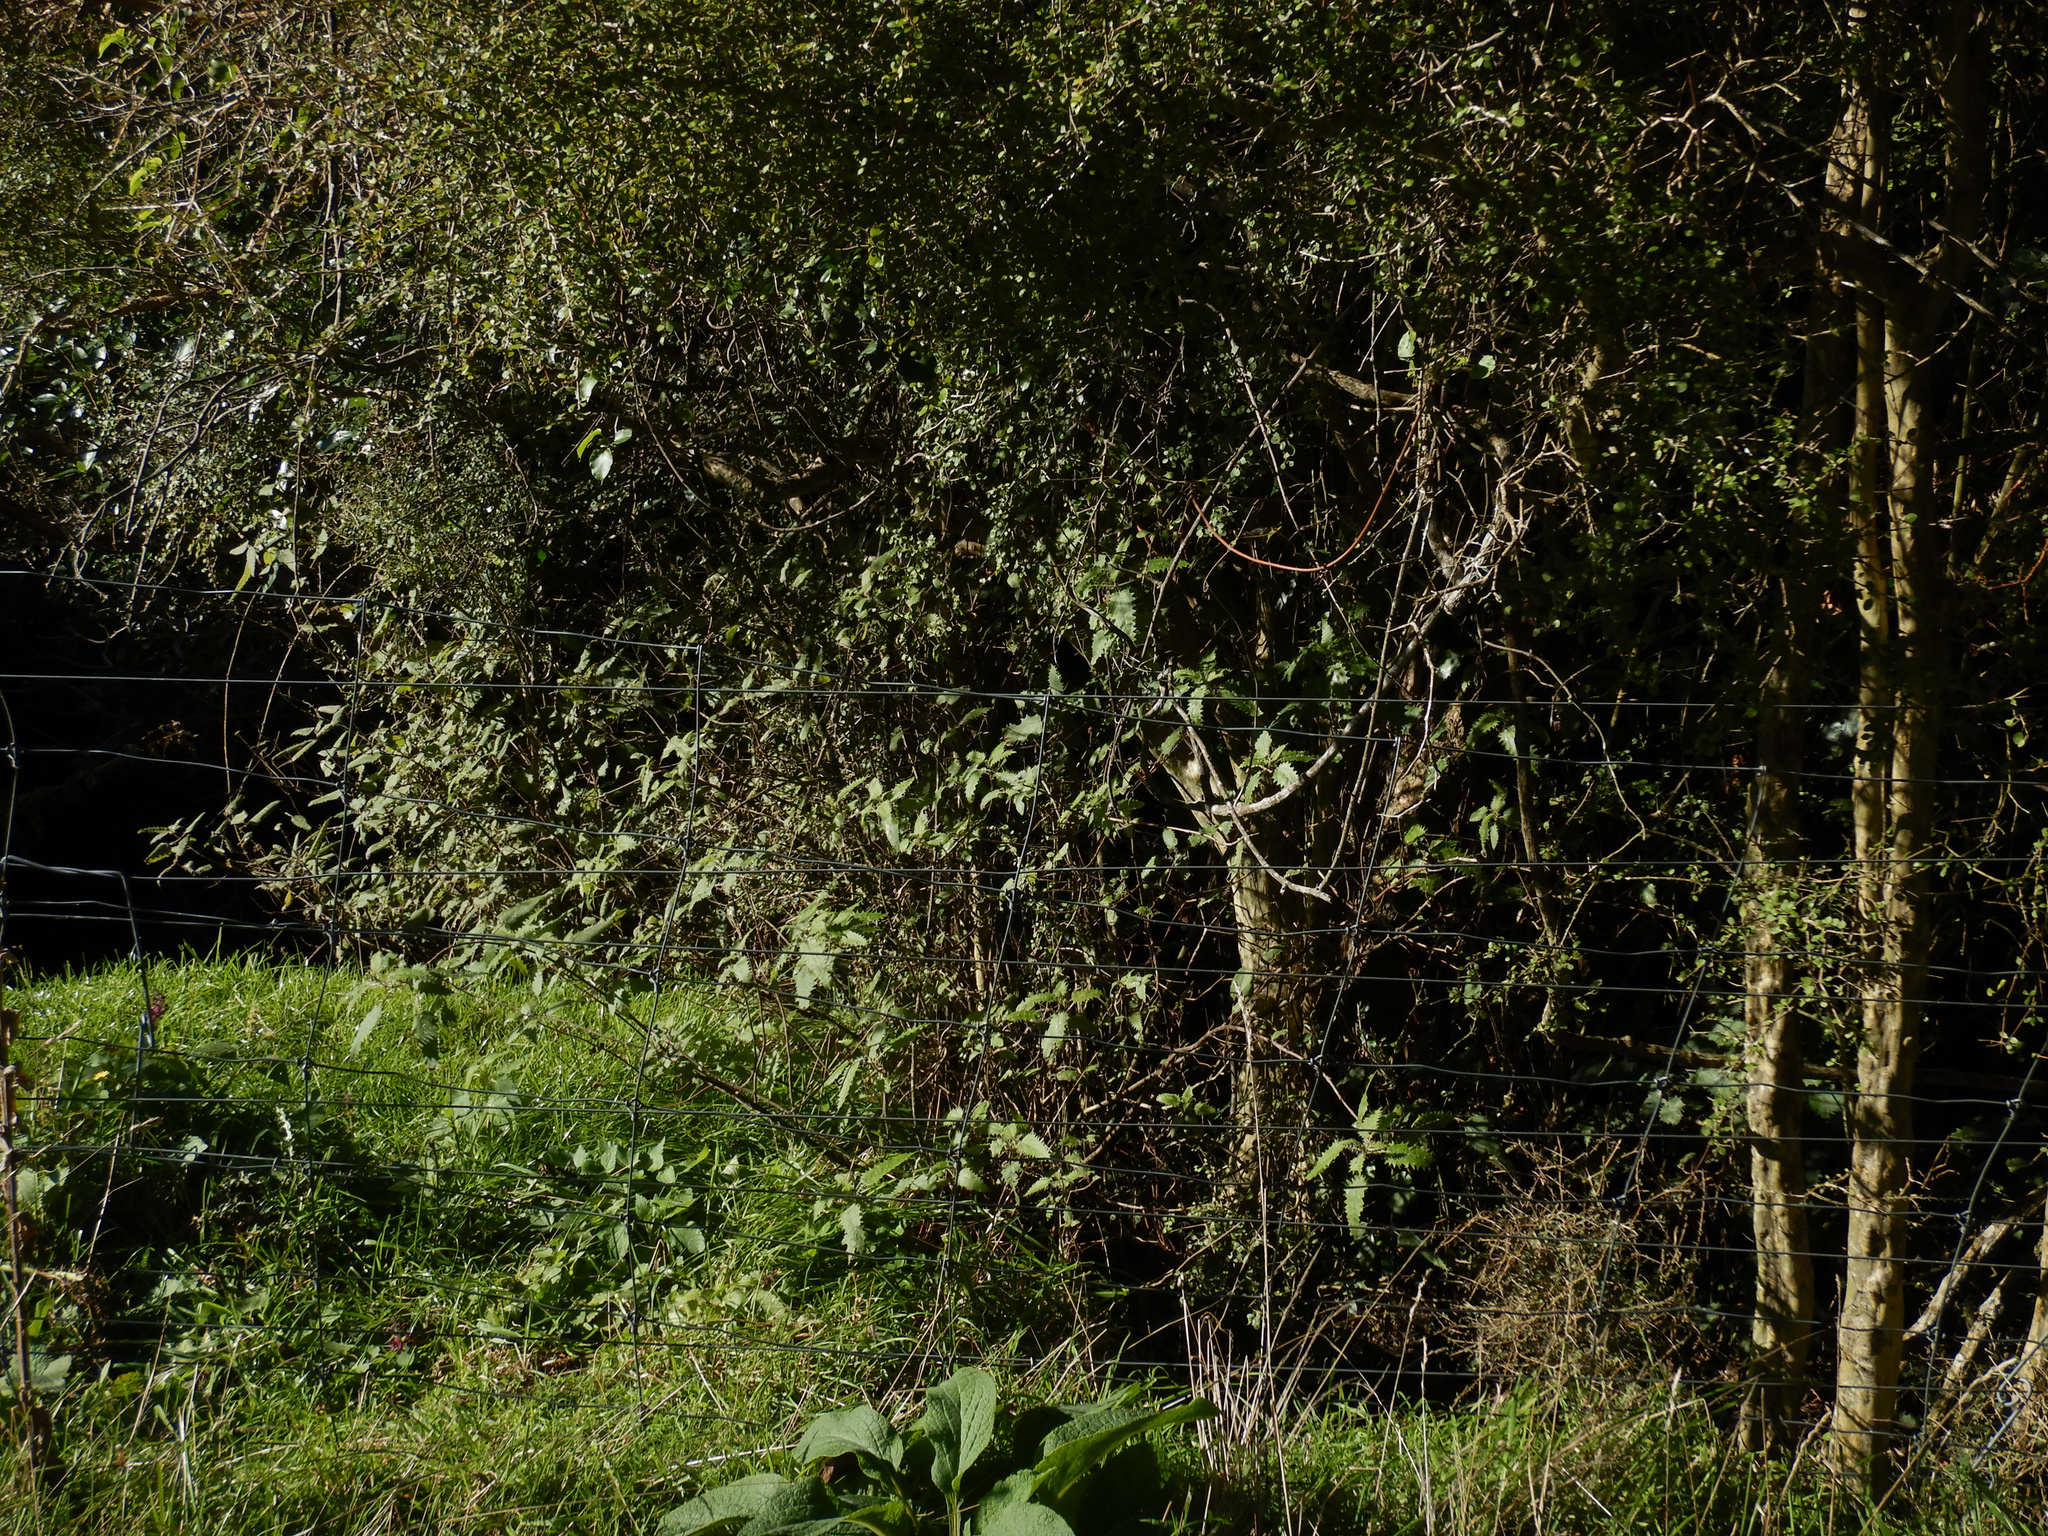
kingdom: Plantae
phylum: Tracheophyta
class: Magnoliopsida
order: Rosales
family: Urticaceae
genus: Urtica
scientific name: Urtica ferox
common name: Tree nettle
